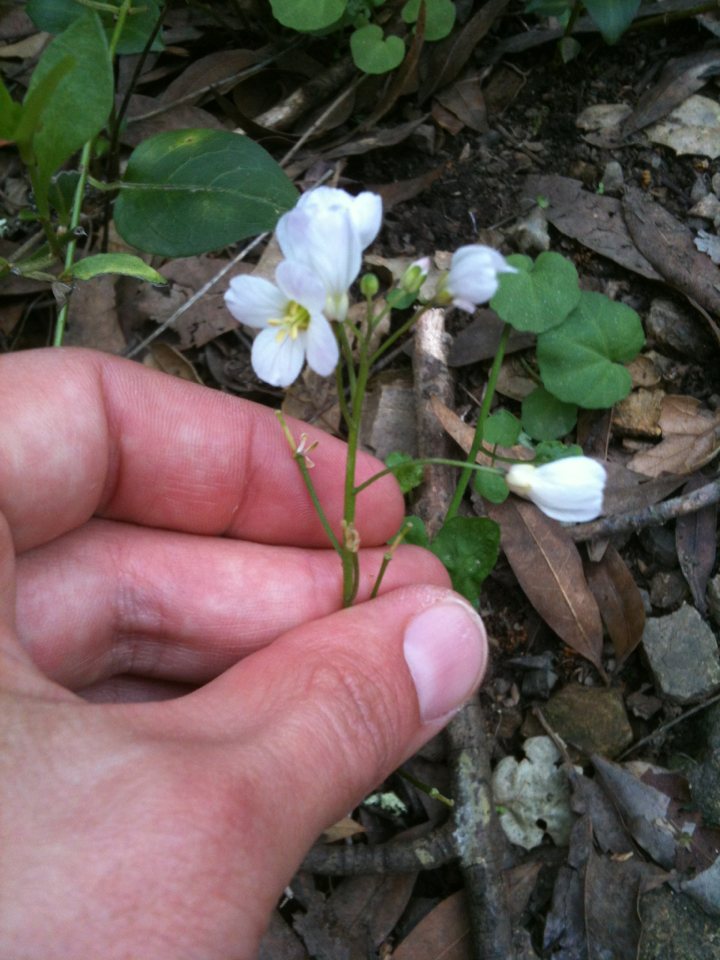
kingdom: Plantae
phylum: Tracheophyta
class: Magnoliopsida
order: Brassicales
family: Brassicaceae
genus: Cardamine
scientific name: Cardamine californica
